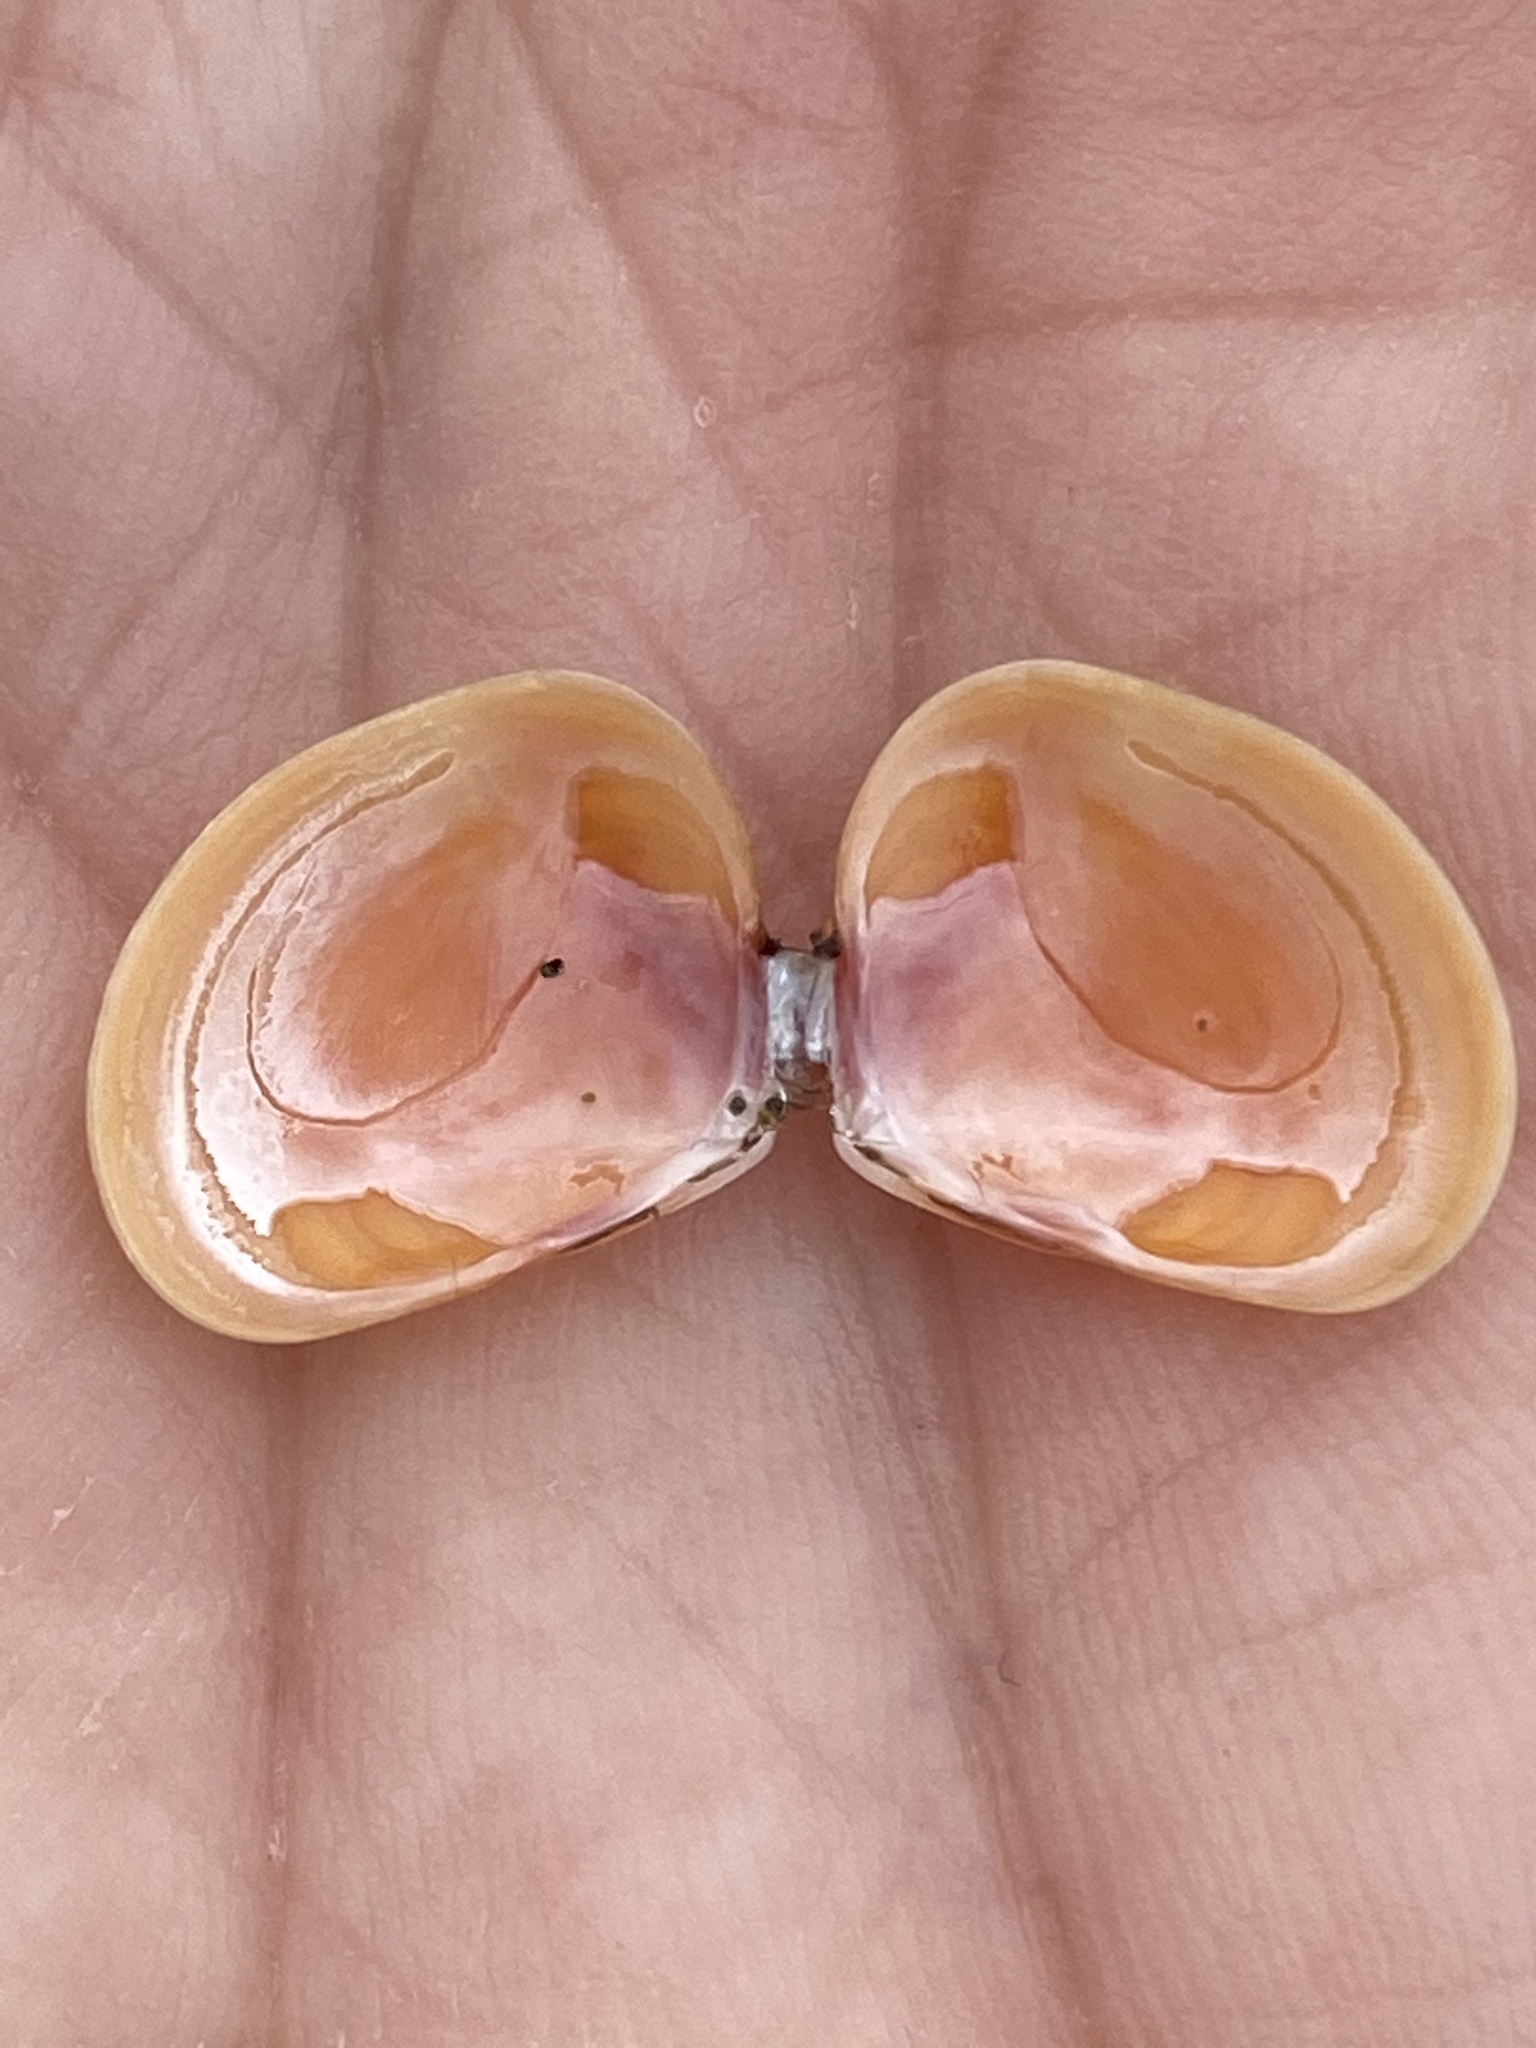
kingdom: Animalia
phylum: Mollusca
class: Bivalvia
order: Cardiida
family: Tellinidae
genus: Tellina
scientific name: Tellina nuculoides
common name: Salmon tellin
